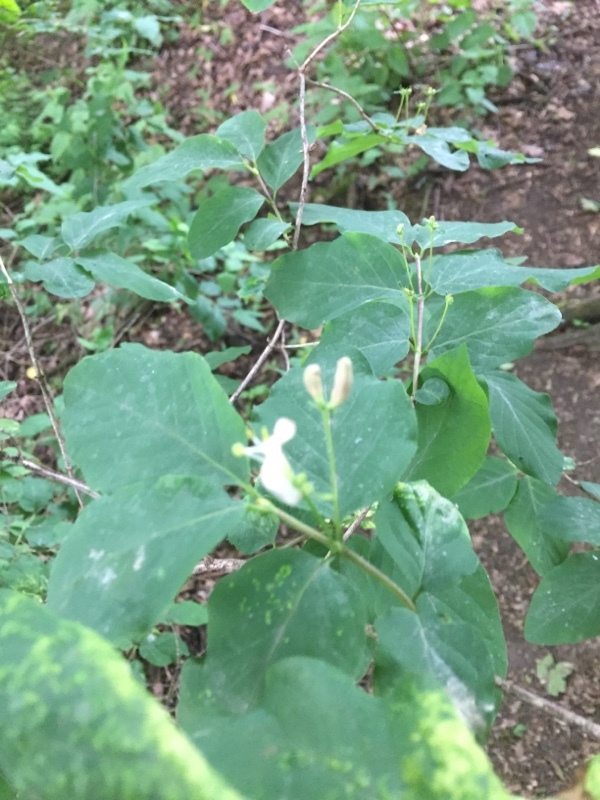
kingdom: Plantae
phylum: Tracheophyta
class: Magnoliopsida
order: Dipsacales
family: Caprifoliaceae
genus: Lonicera
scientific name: Lonicera xylosteum
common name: Fly honeysuckle
